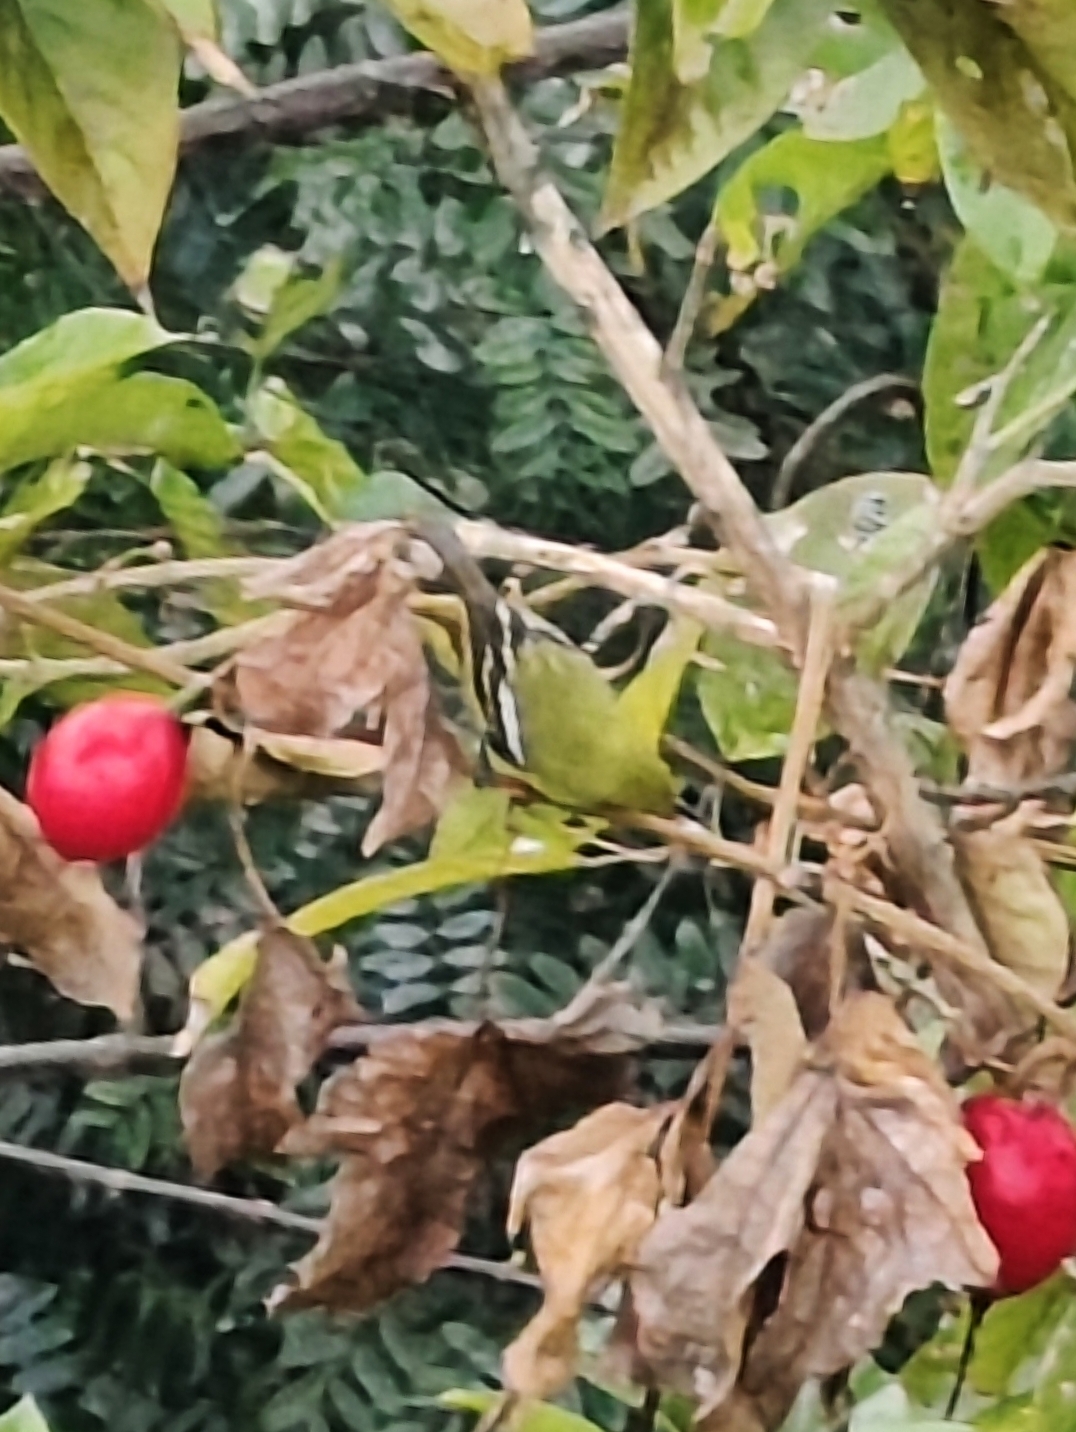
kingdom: Animalia
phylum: Chordata
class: Aves
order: Passeriformes
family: Aegithinidae
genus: Aegithina
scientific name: Aegithina tiphia
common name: Common iora
